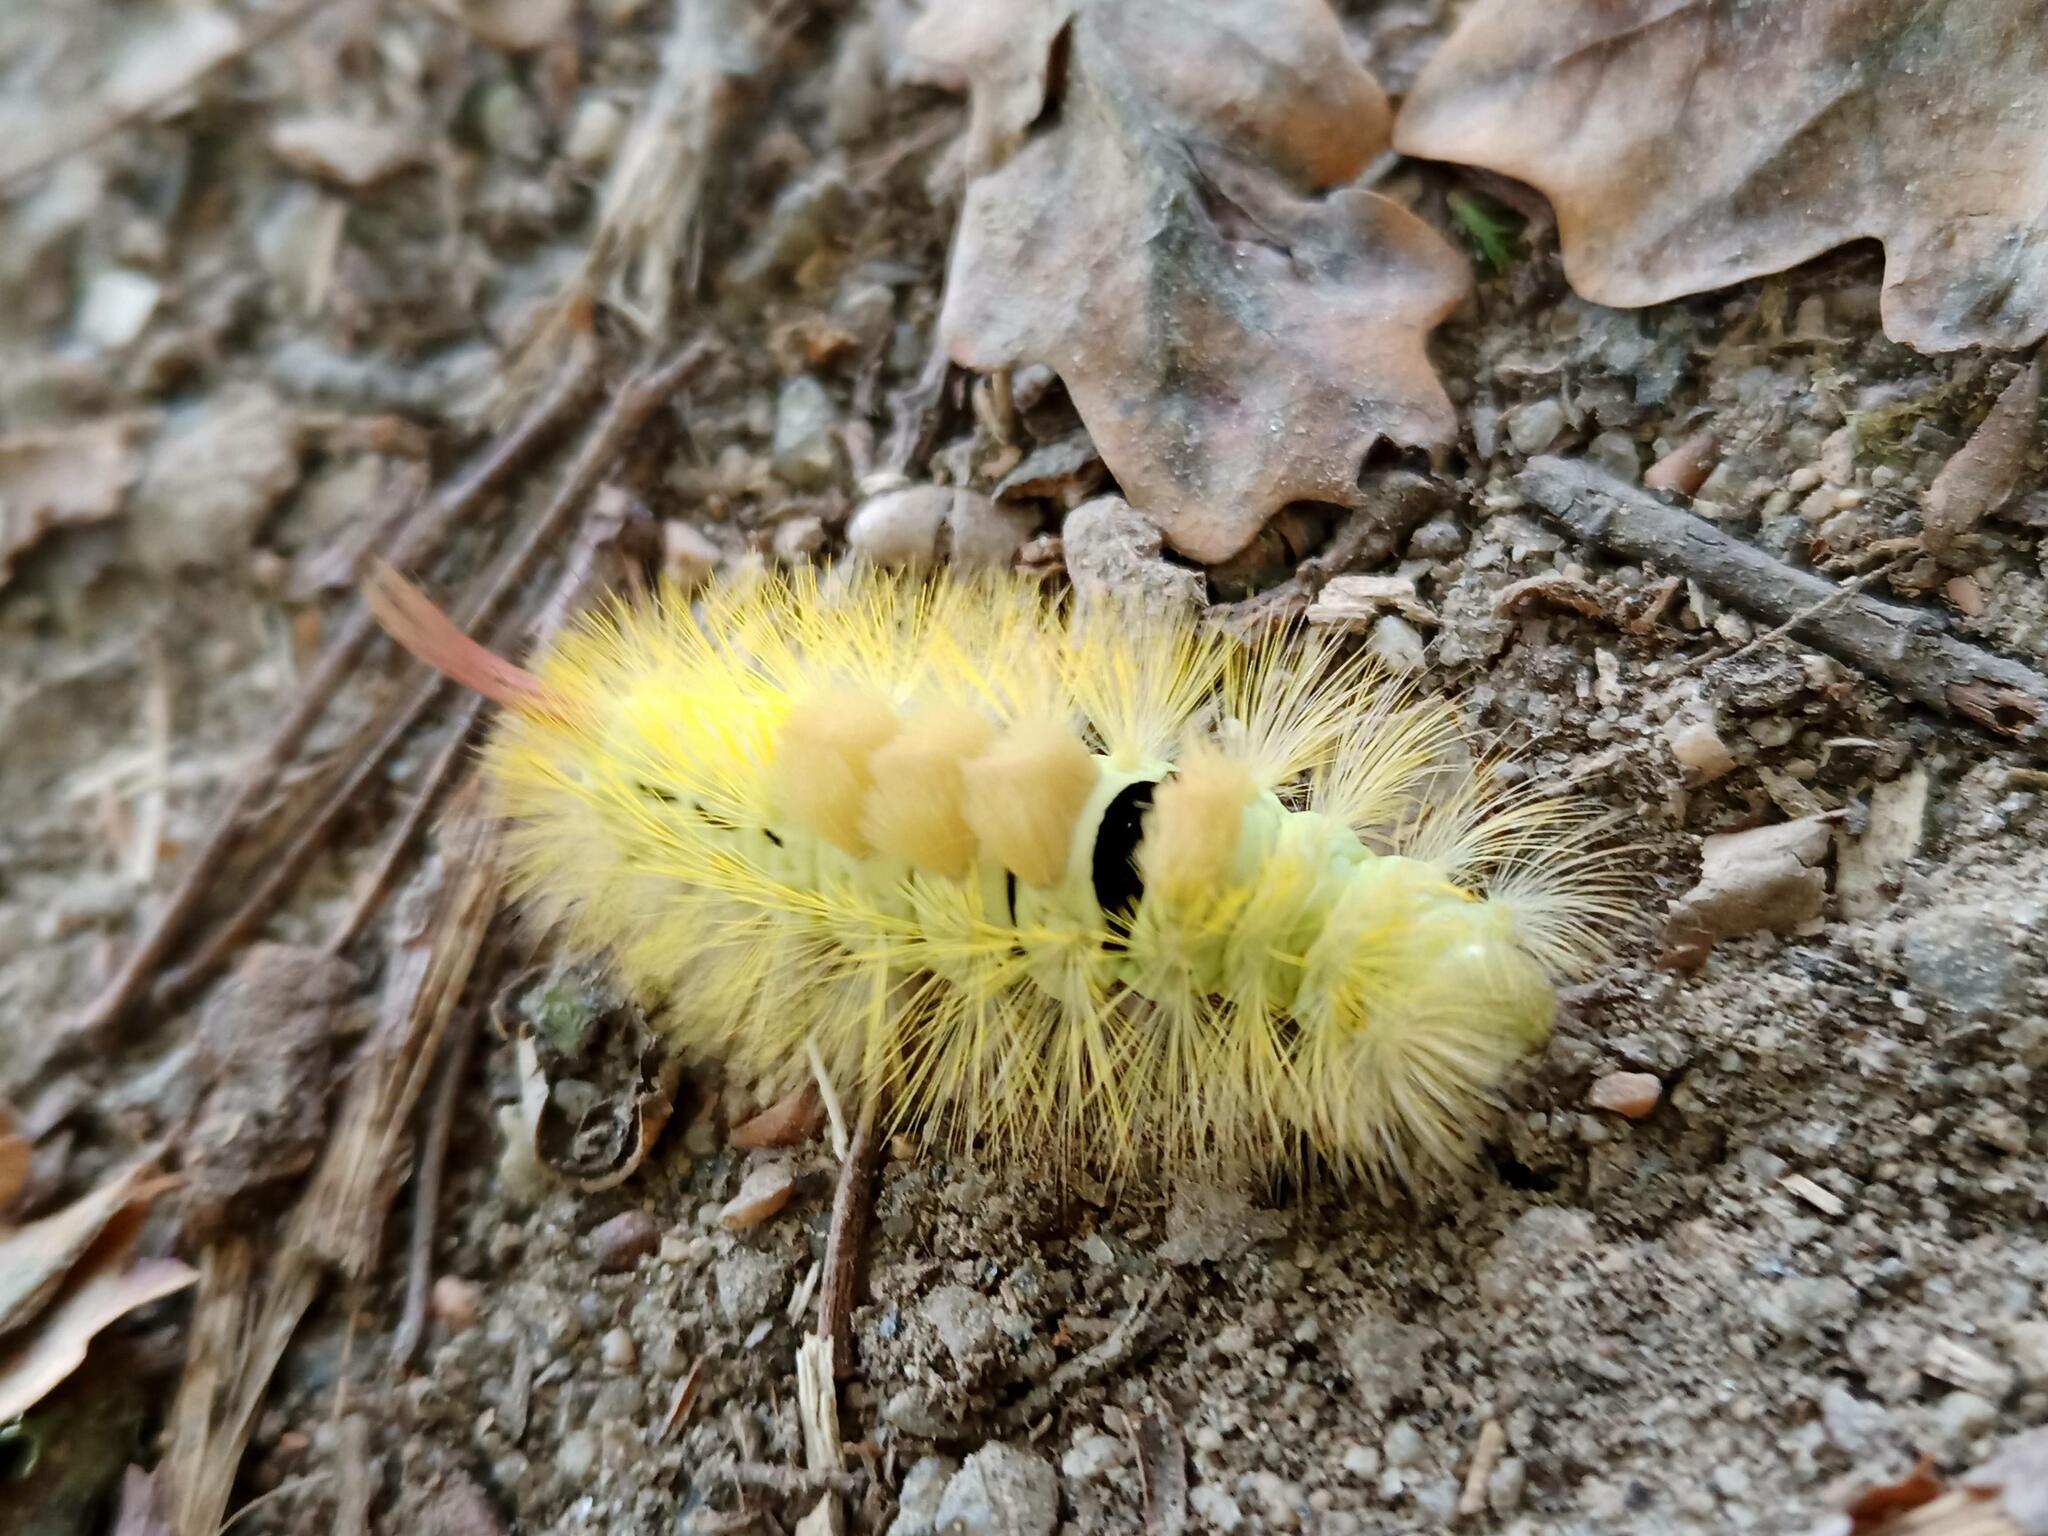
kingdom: Animalia
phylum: Arthropoda
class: Insecta
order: Lepidoptera
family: Erebidae
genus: Calliteara
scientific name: Calliteara pudibunda
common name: Pale tussock
